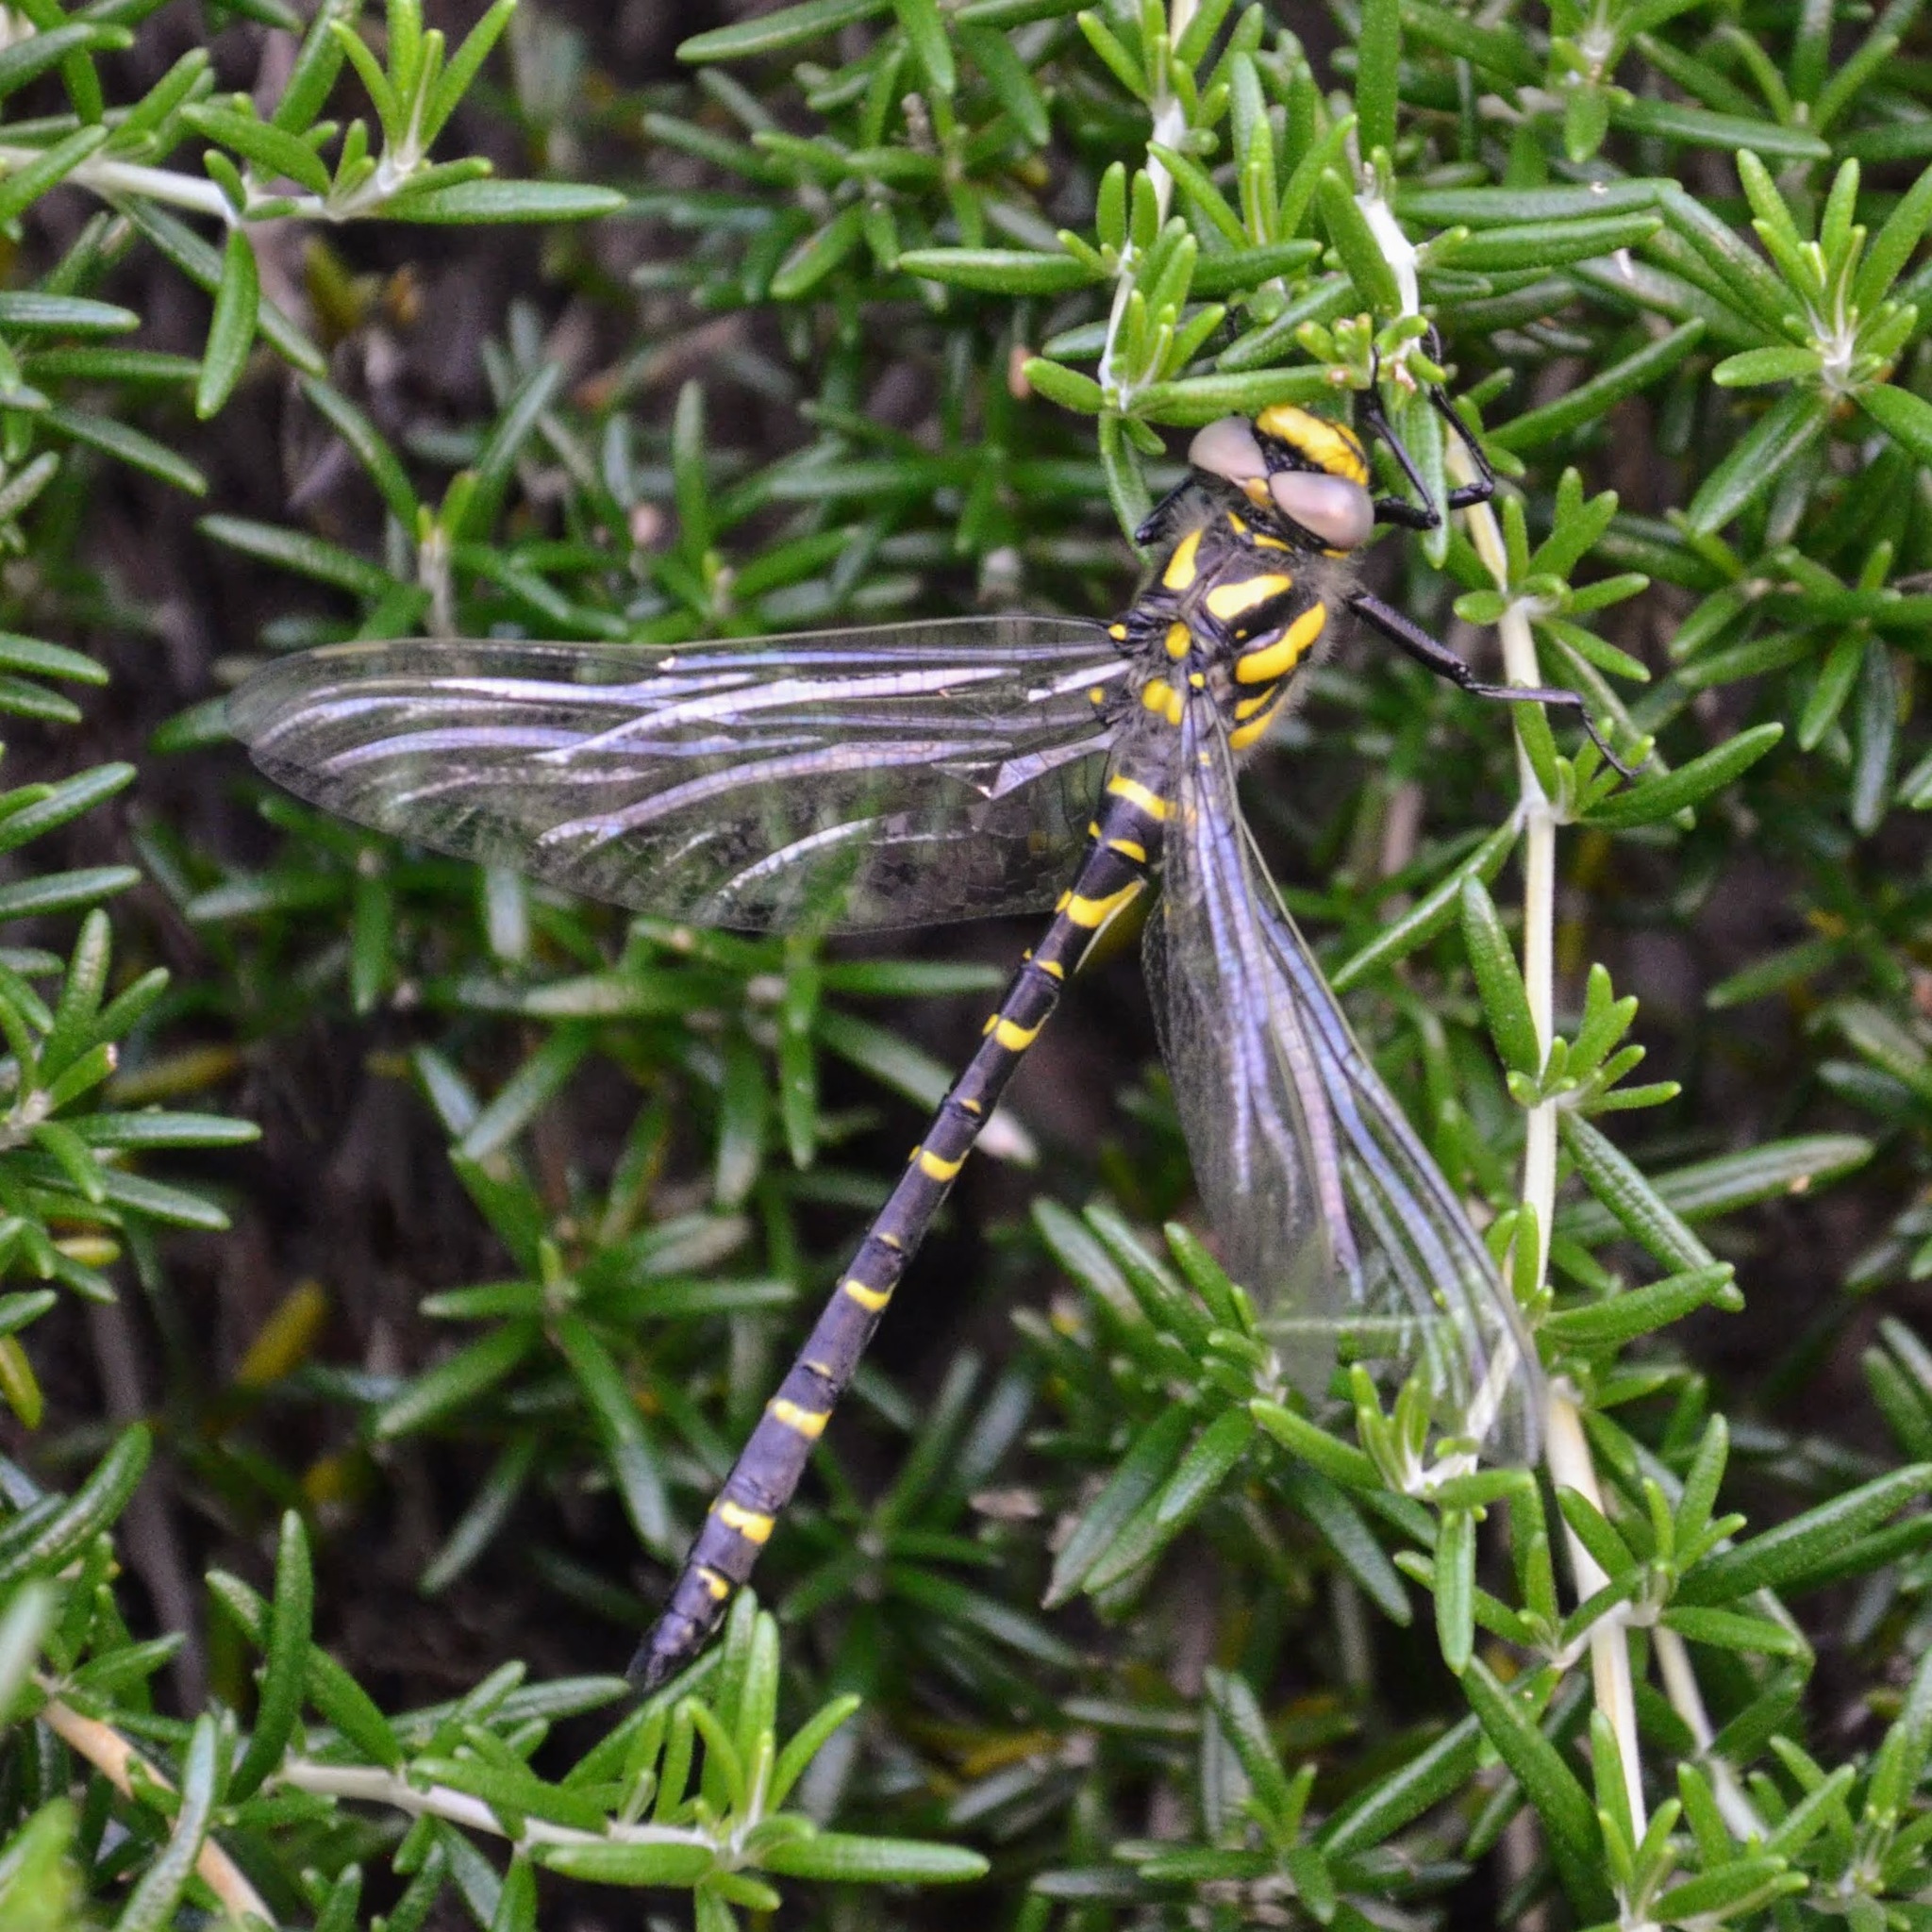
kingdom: Animalia
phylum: Arthropoda
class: Insecta
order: Odonata
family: Cordulegastridae
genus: Cordulegaster
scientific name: Cordulegaster boltonii
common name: Golden-ringed dragonfly
